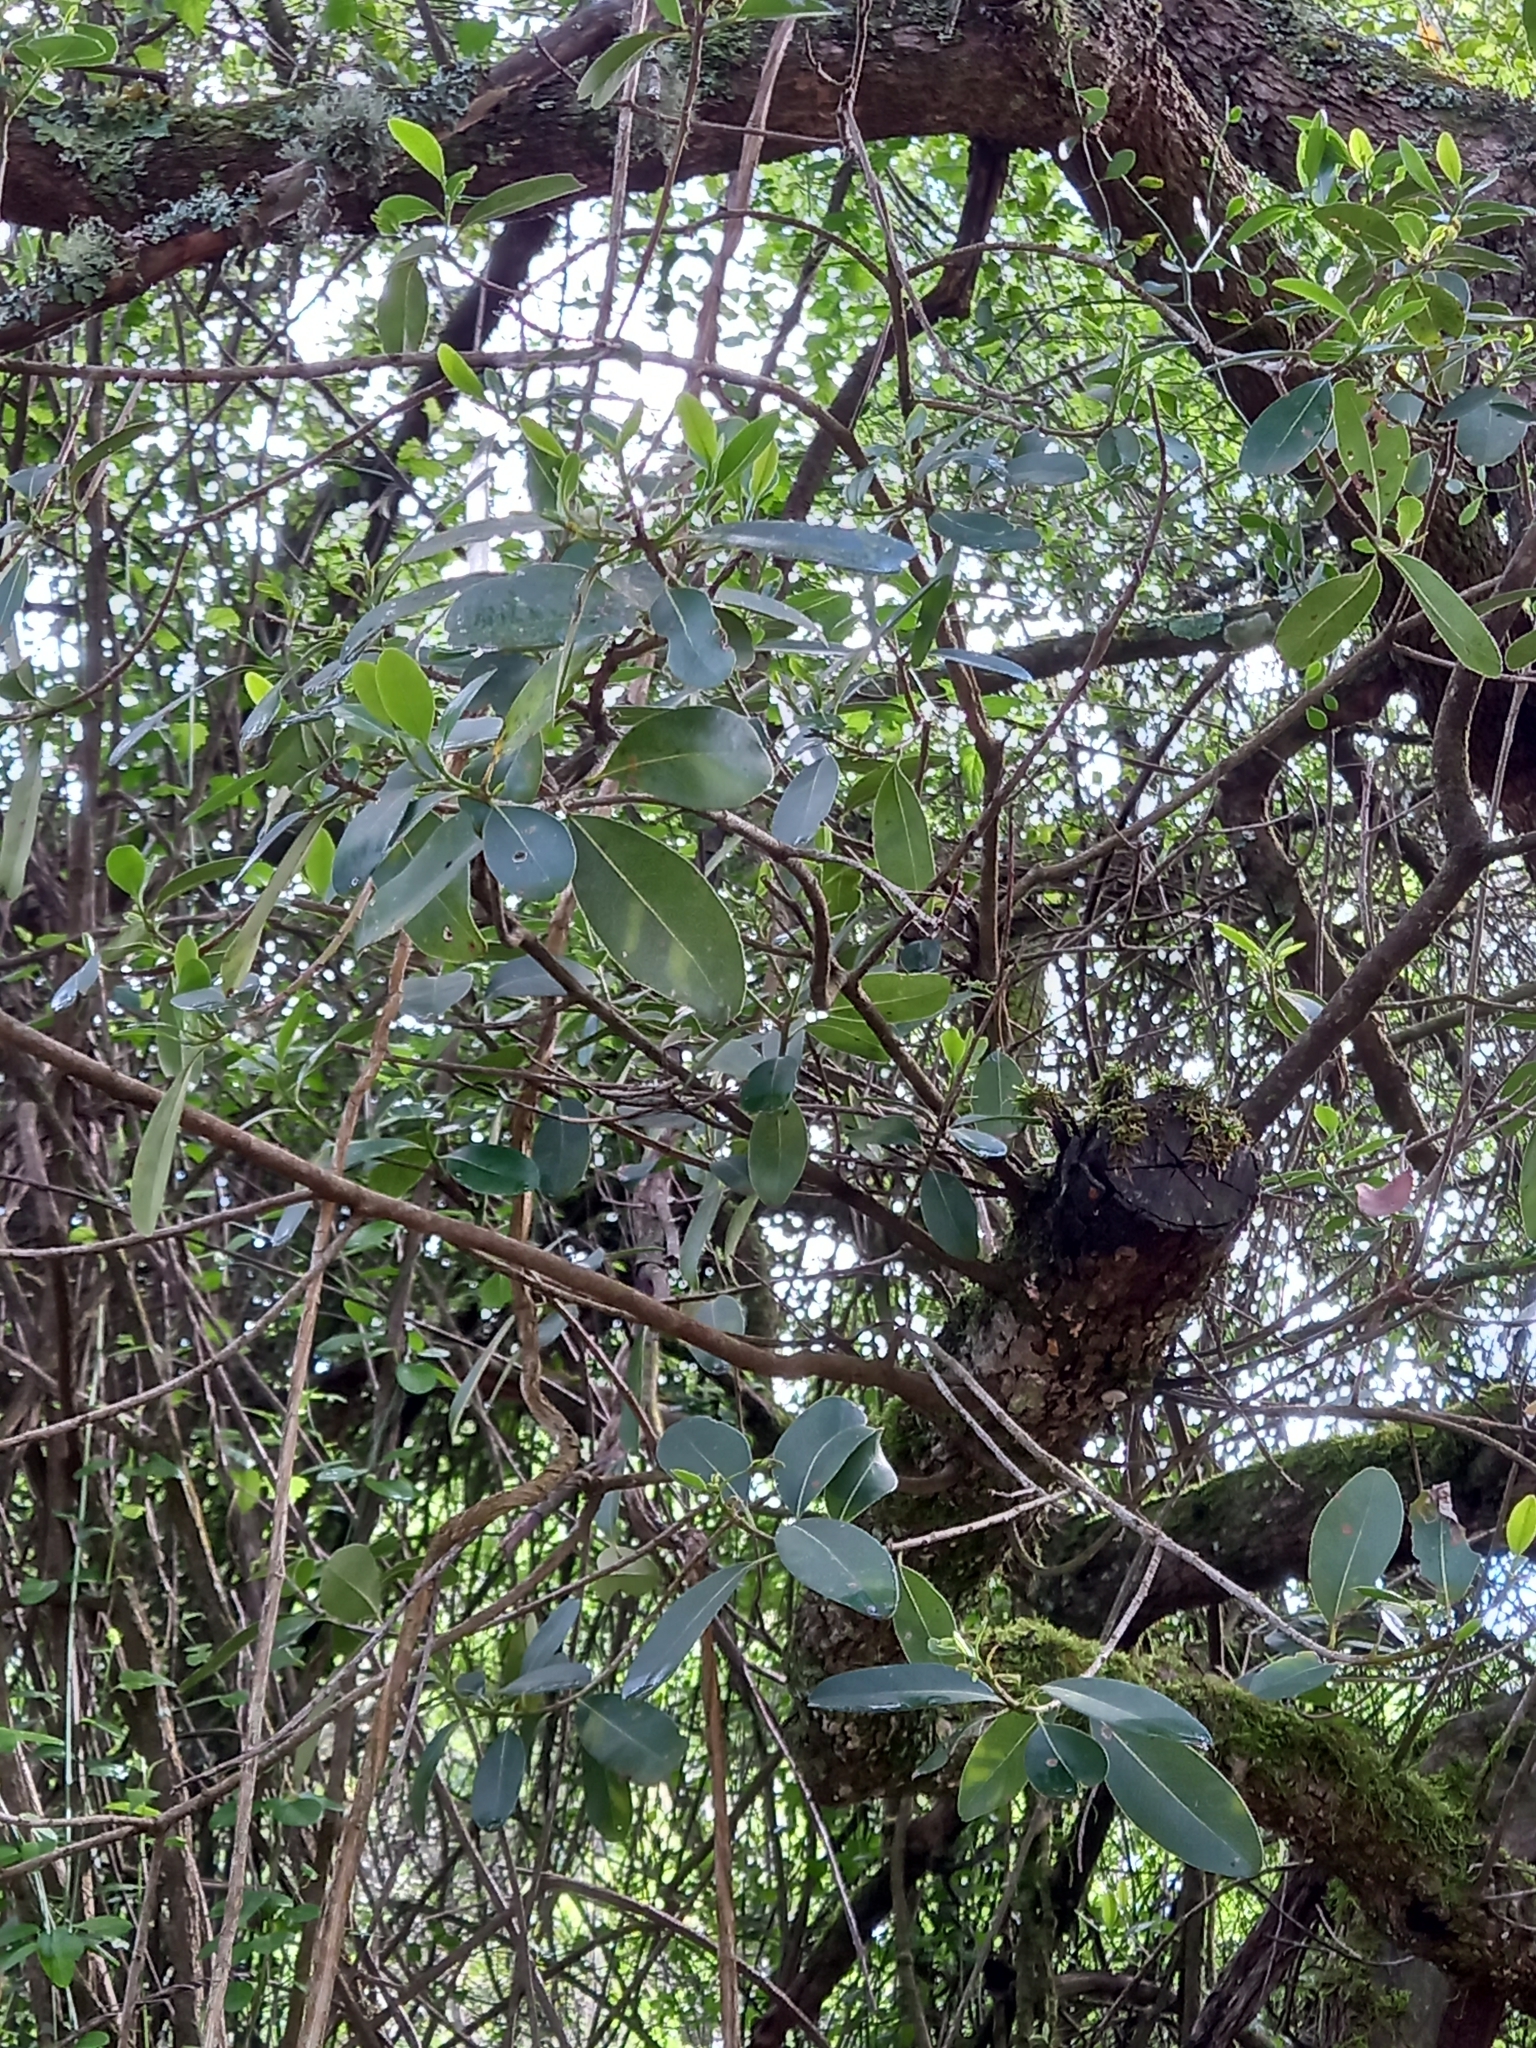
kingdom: Plantae
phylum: Tracheophyta
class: Magnoliopsida
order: Ericales
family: Sapotaceae
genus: Sideroxylon
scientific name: Sideroxylon inerme
